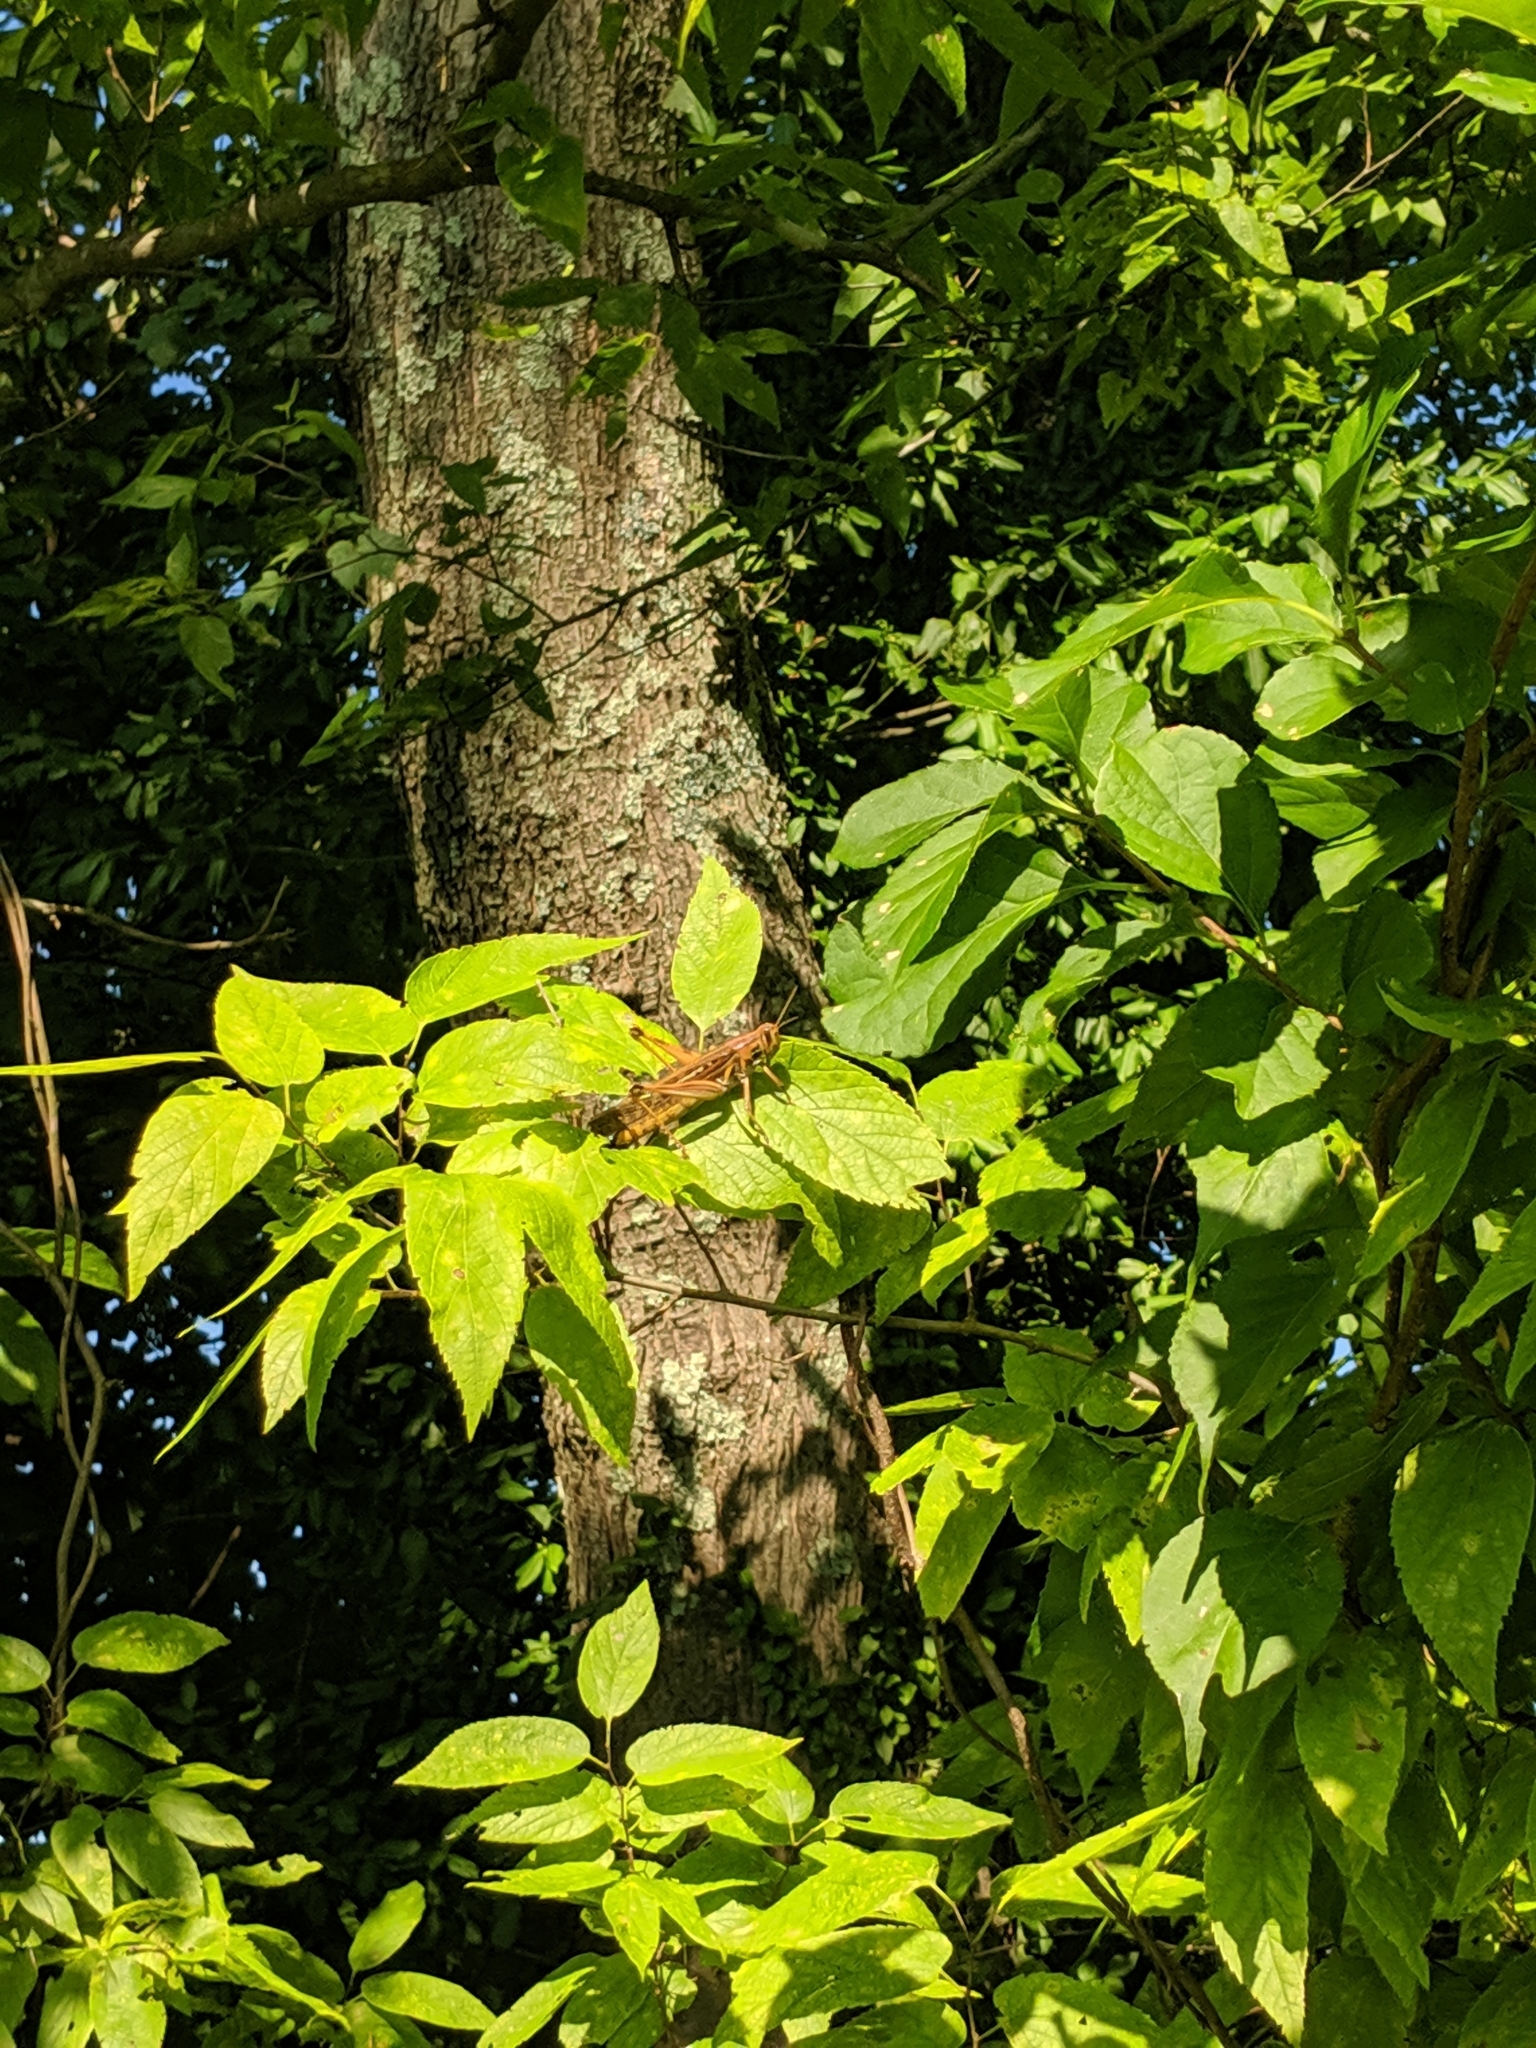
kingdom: Animalia
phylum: Arthropoda
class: Insecta
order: Orthoptera
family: Acrididae
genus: Schistocerca
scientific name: Schistocerca americana
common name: American bird locust
